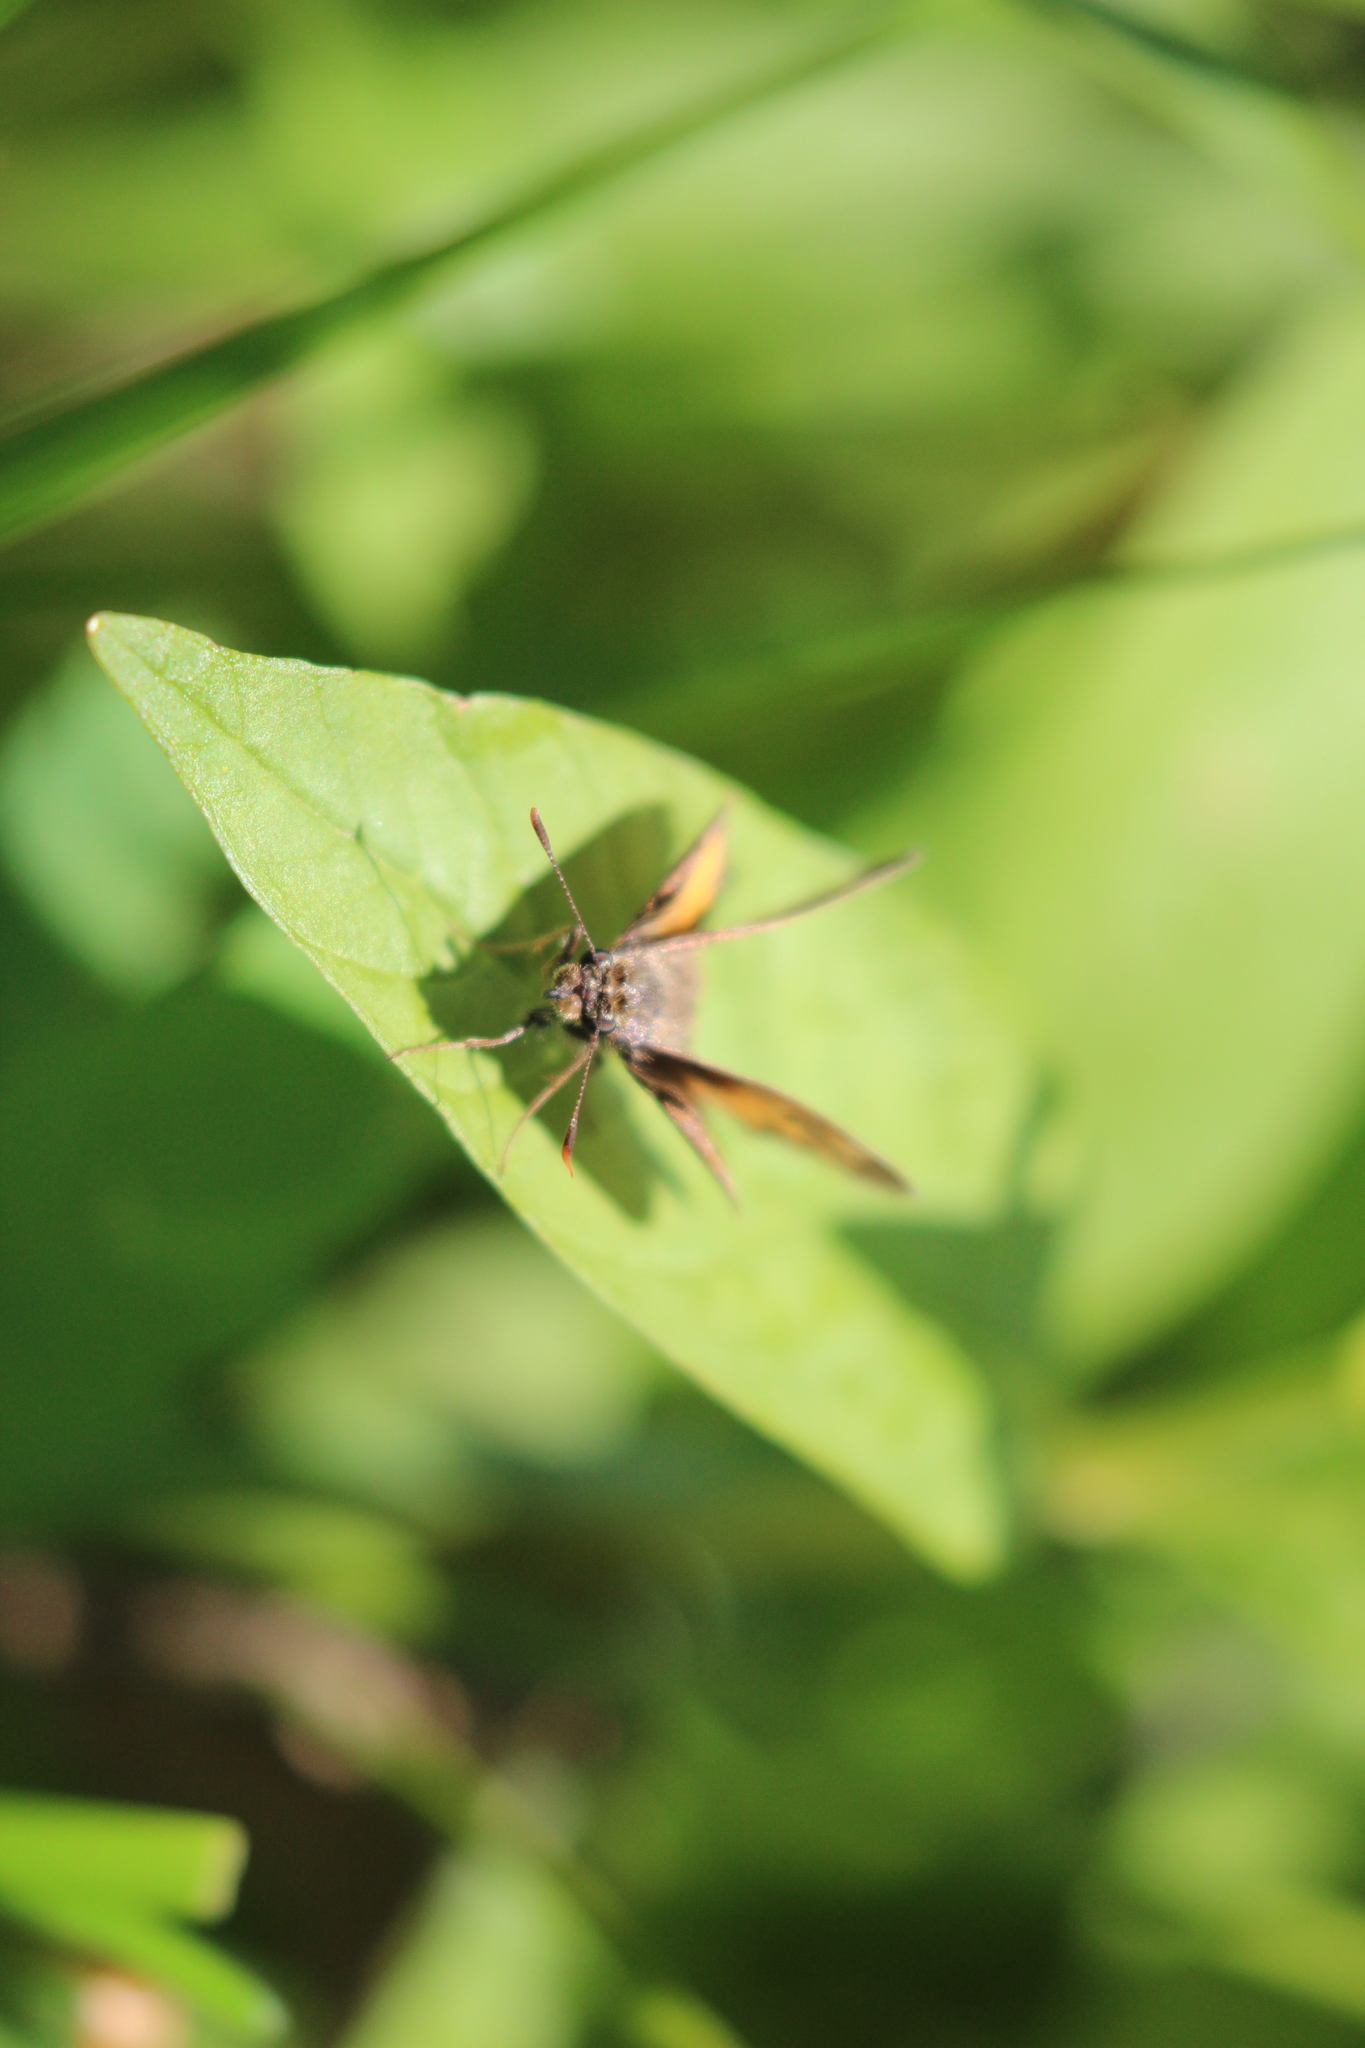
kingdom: Animalia
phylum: Arthropoda
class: Insecta
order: Lepidoptera
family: Hesperiidae
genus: Lon
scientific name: Lon hobomok
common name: Hobomok skipper
